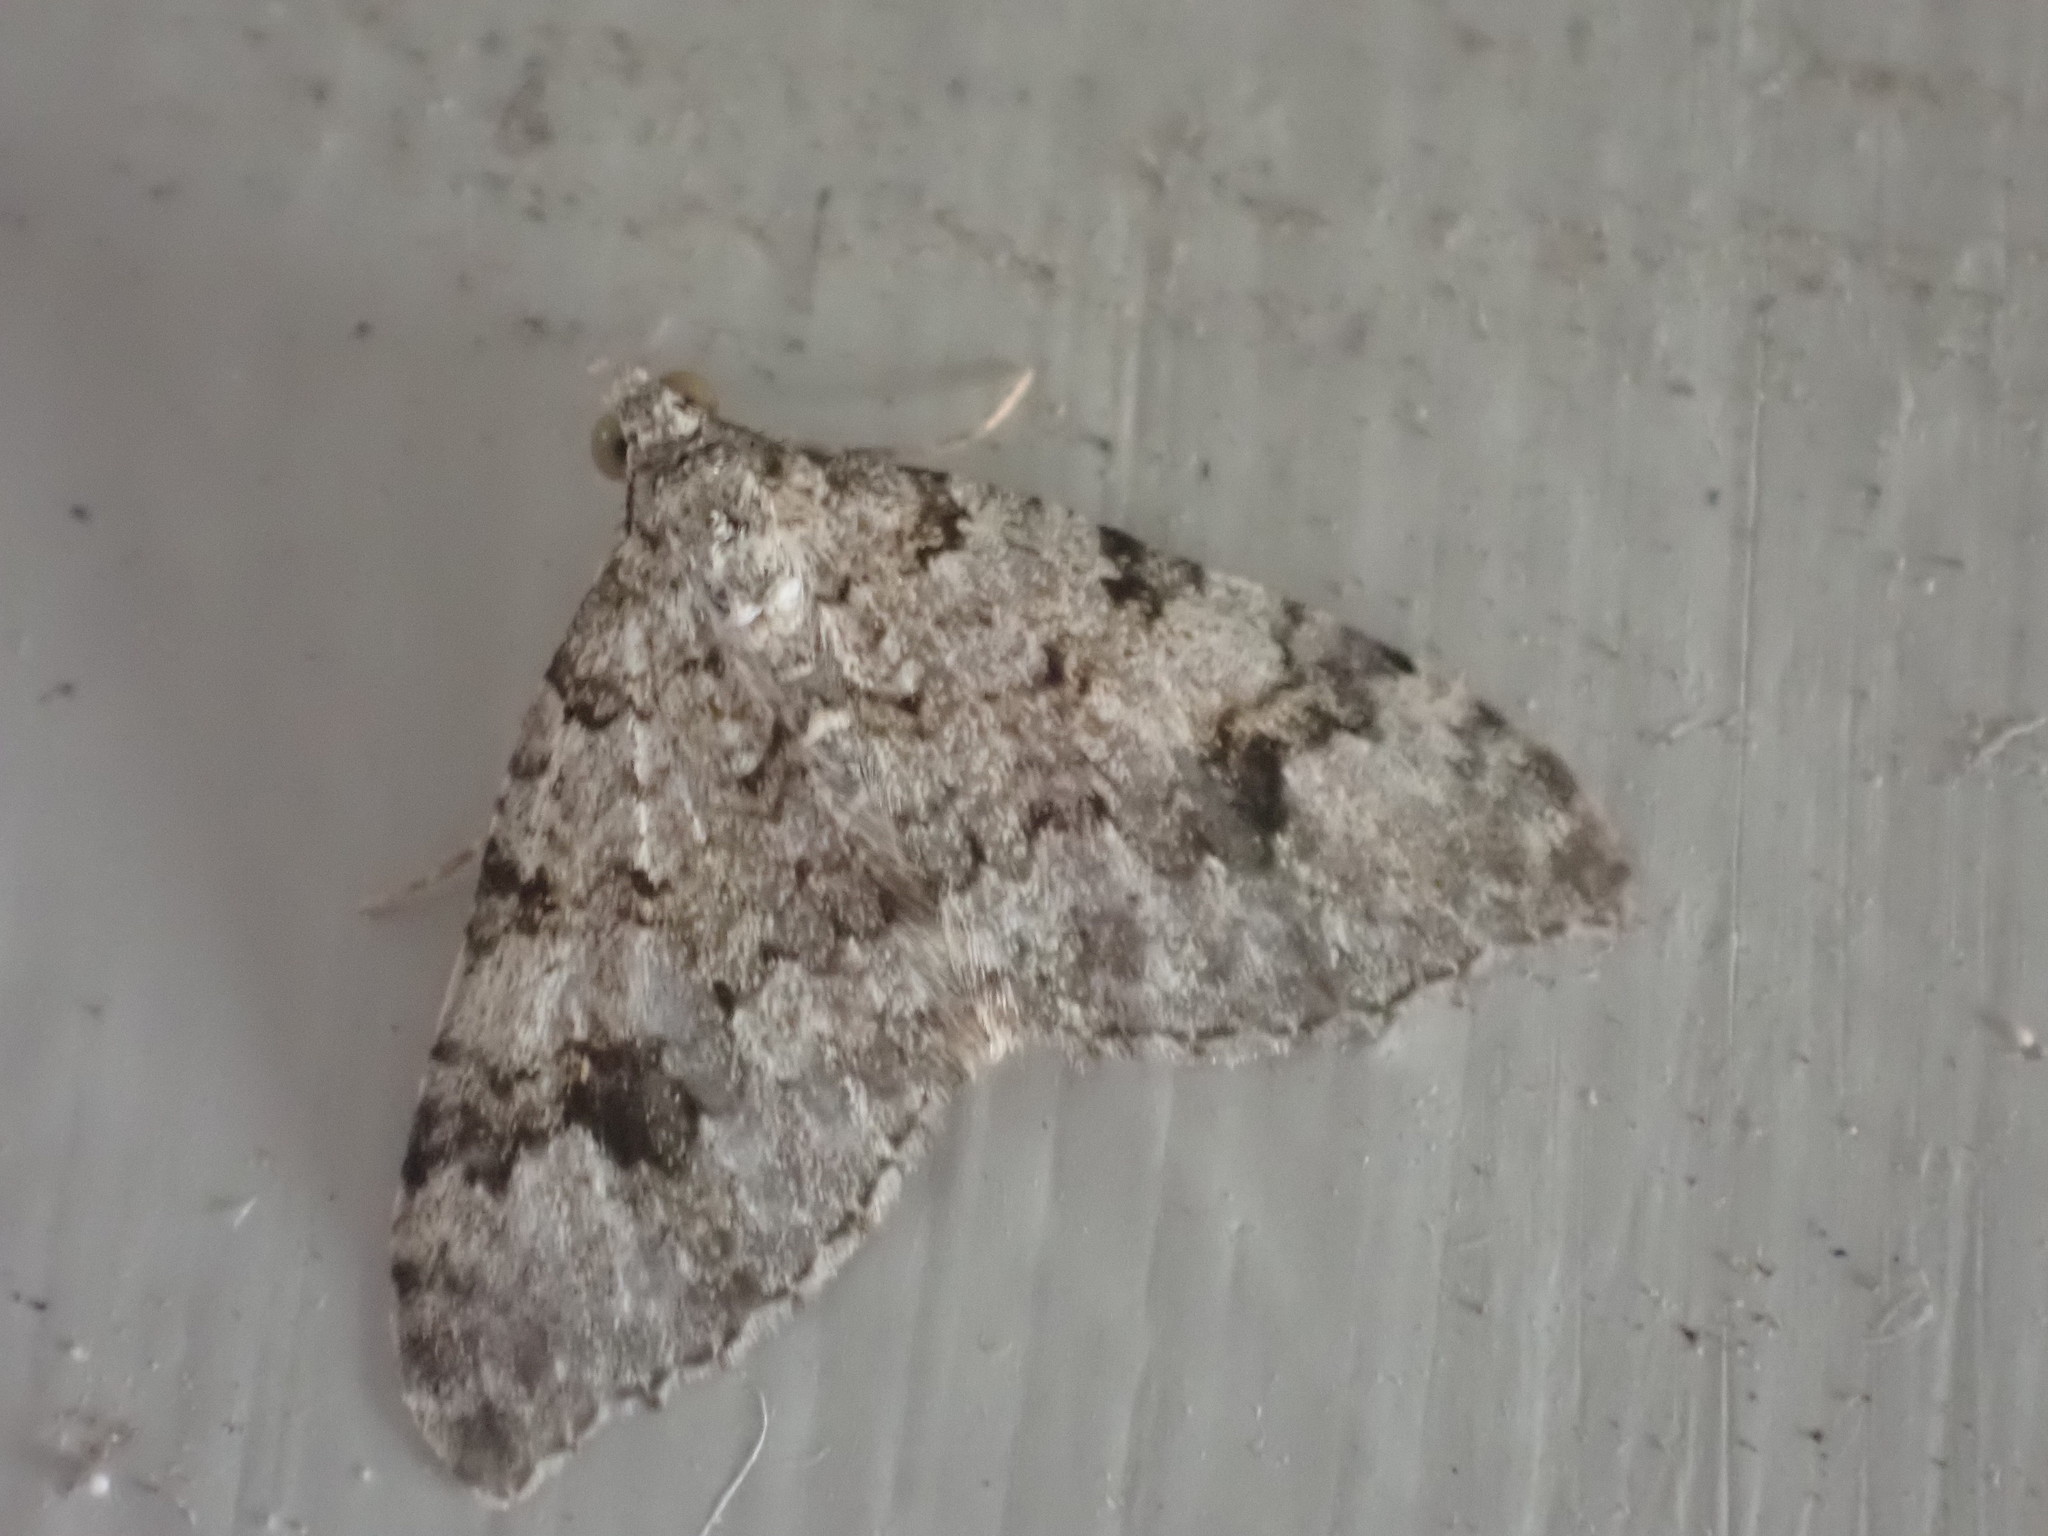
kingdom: Animalia
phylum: Arthropoda
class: Insecta
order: Lepidoptera
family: Geometridae
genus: Helastia
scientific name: Helastia cinerearia
